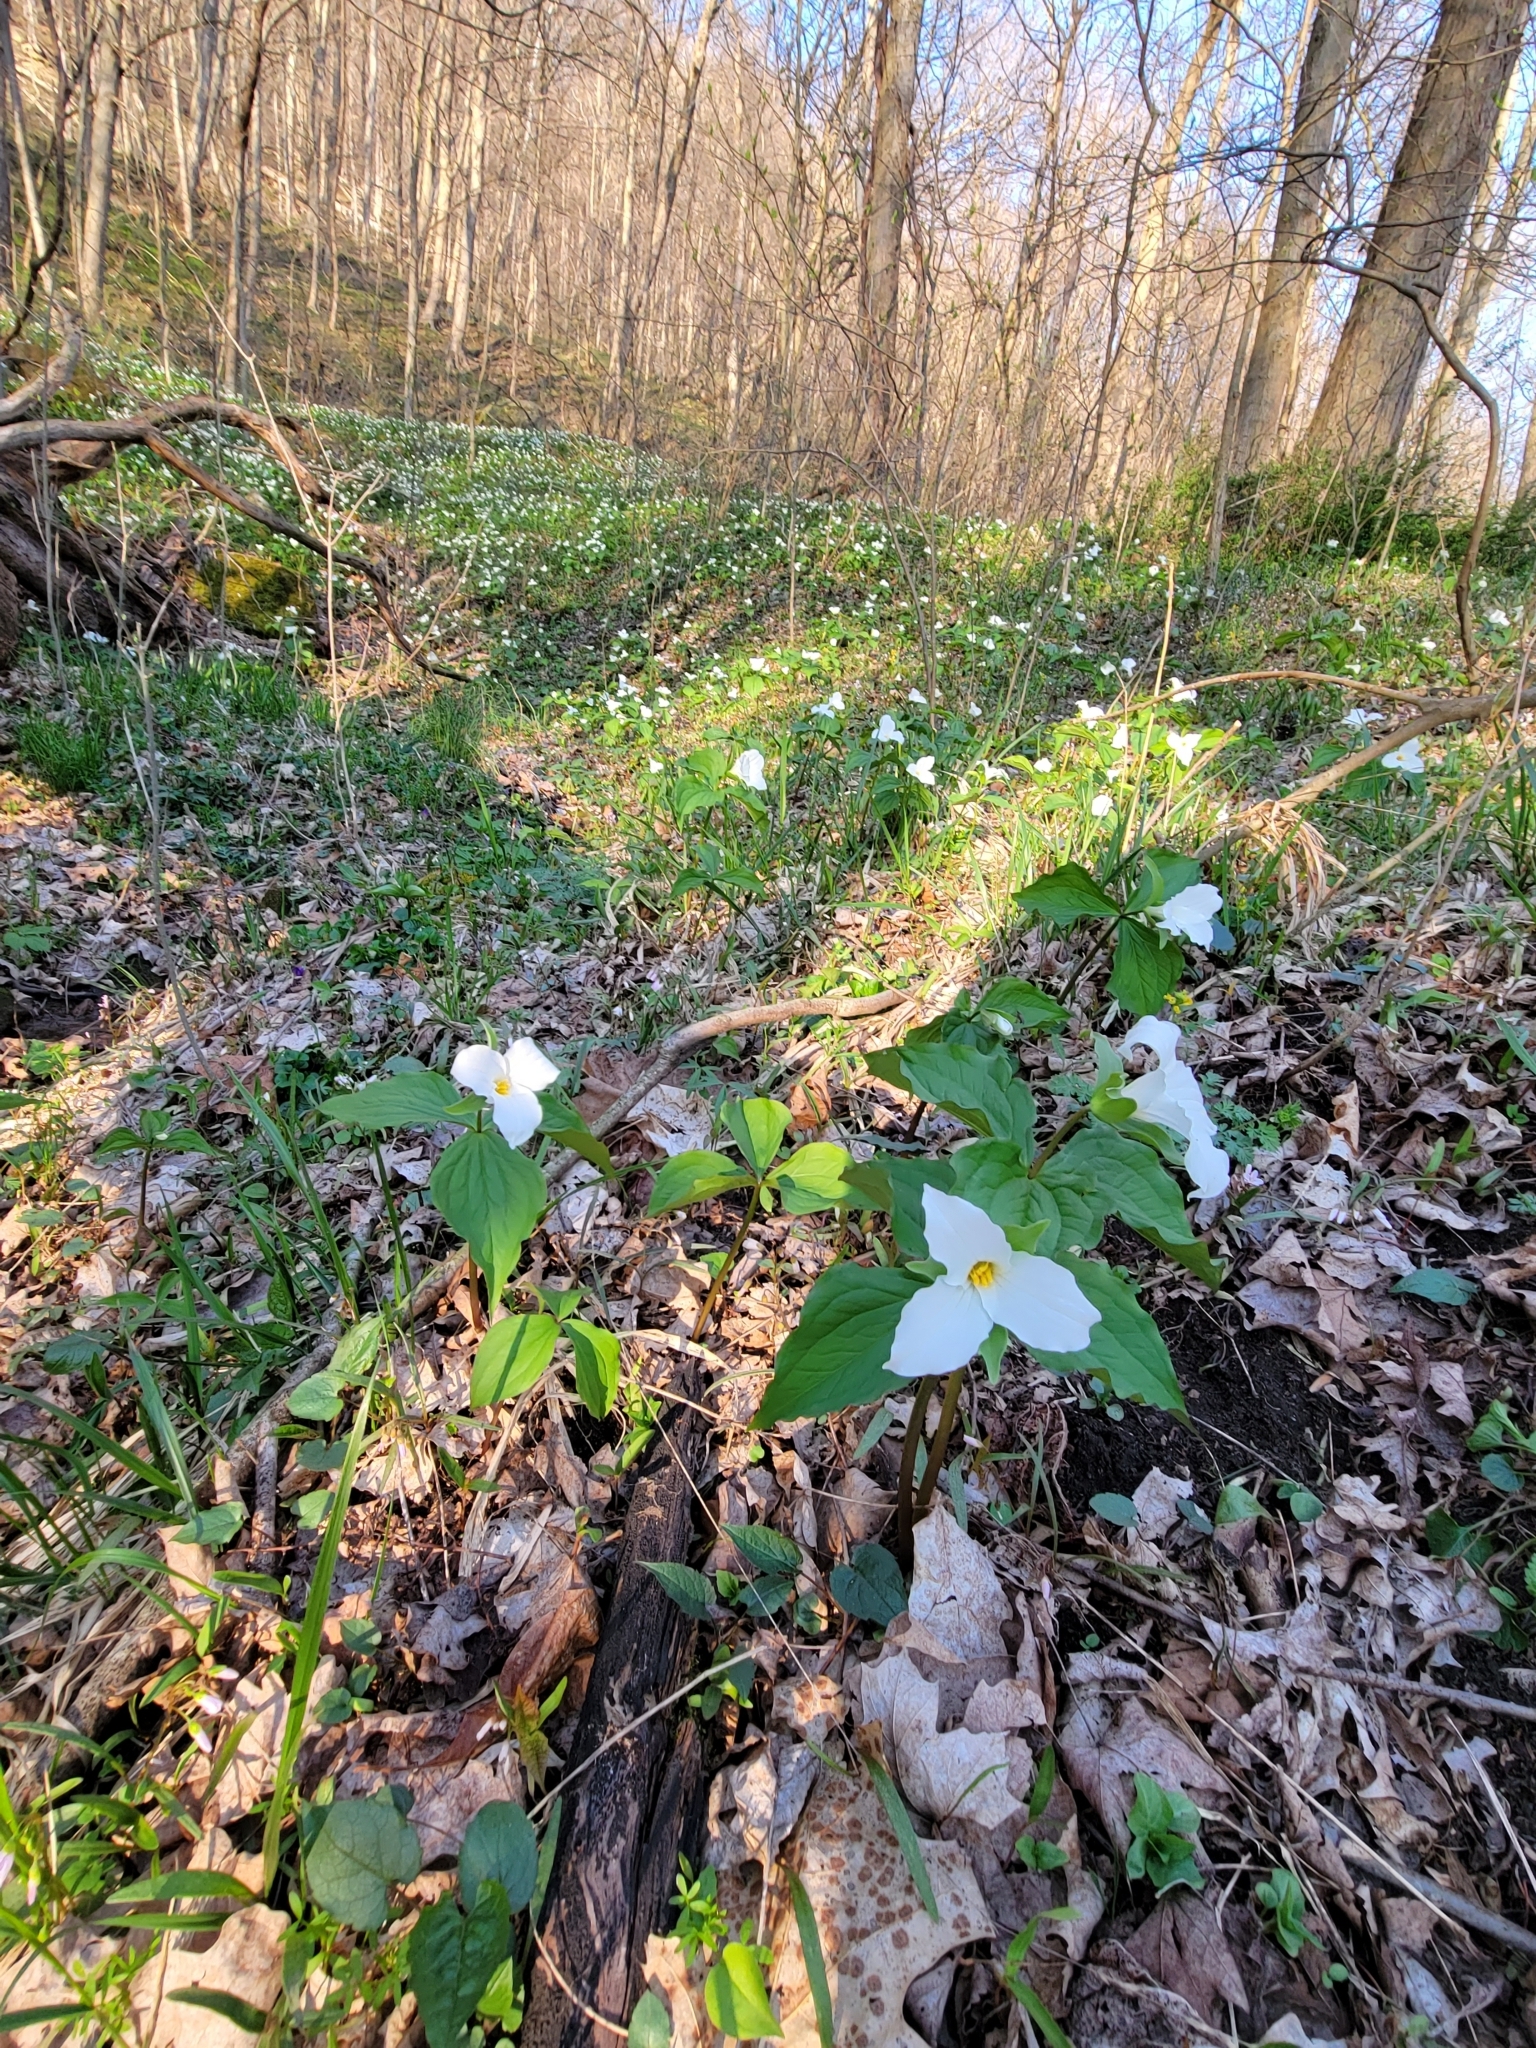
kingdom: Plantae
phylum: Tracheophyta
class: Liliopsida
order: Liliales
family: Melanthiaceae
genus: Trillium
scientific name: Trillium grandiflorum
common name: Great white trillium
